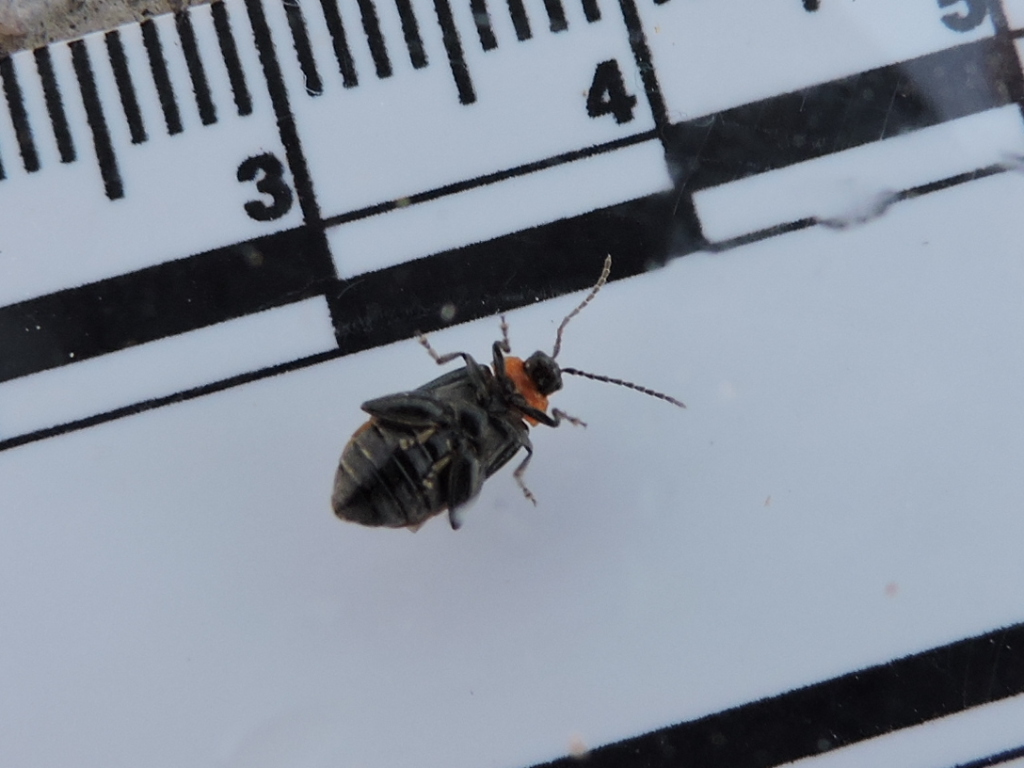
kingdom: Animalia
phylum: Arthropoda
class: Insecta
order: Coleoptera
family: Chrysomelidae
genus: Disonycha
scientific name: Disonycha triangularis
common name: Three-spotted flea beetle
